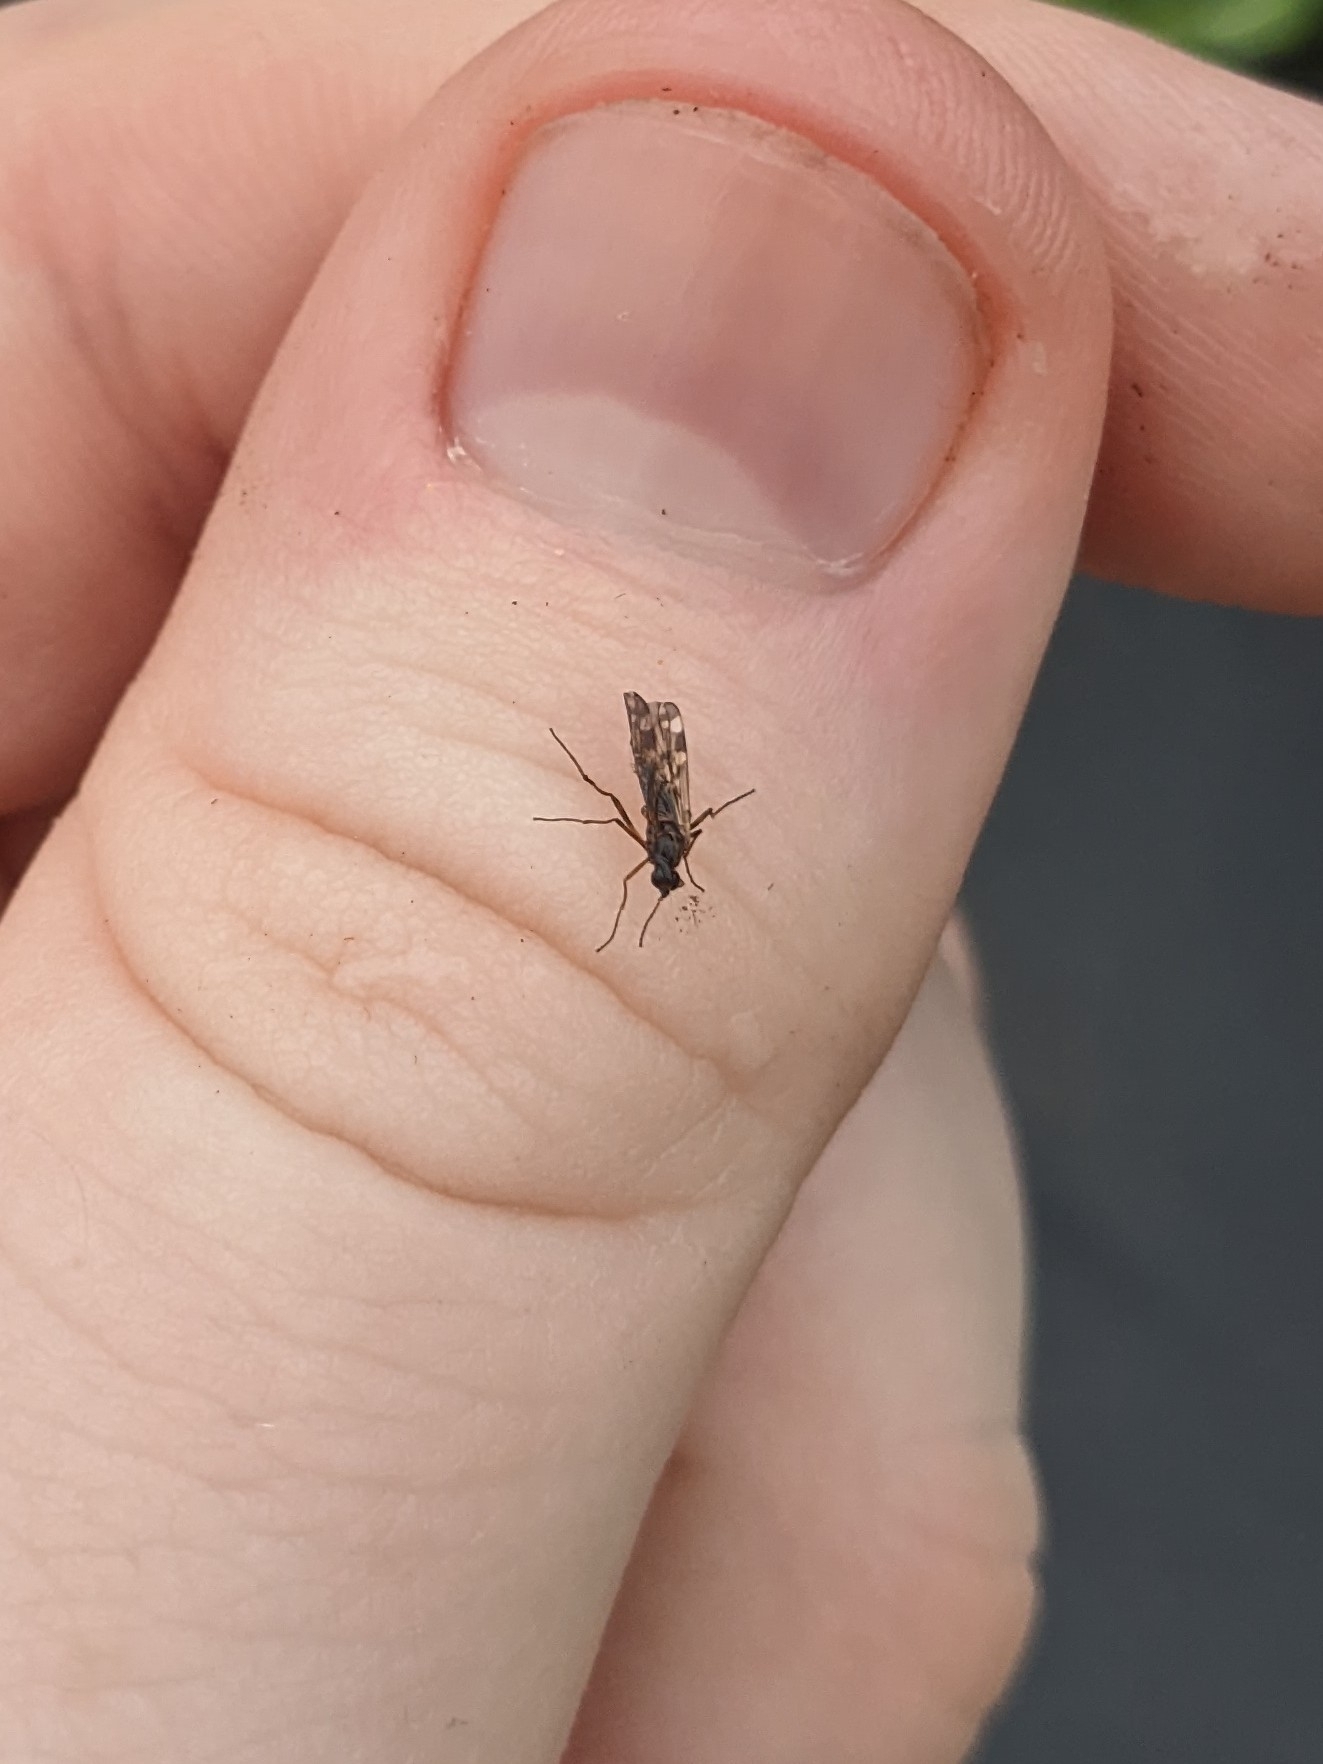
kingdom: Animalia
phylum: Arthropoda
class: Insecta
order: Diptera
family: Anisopodidae
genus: Sylvicola
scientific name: Sylvicola alternata
